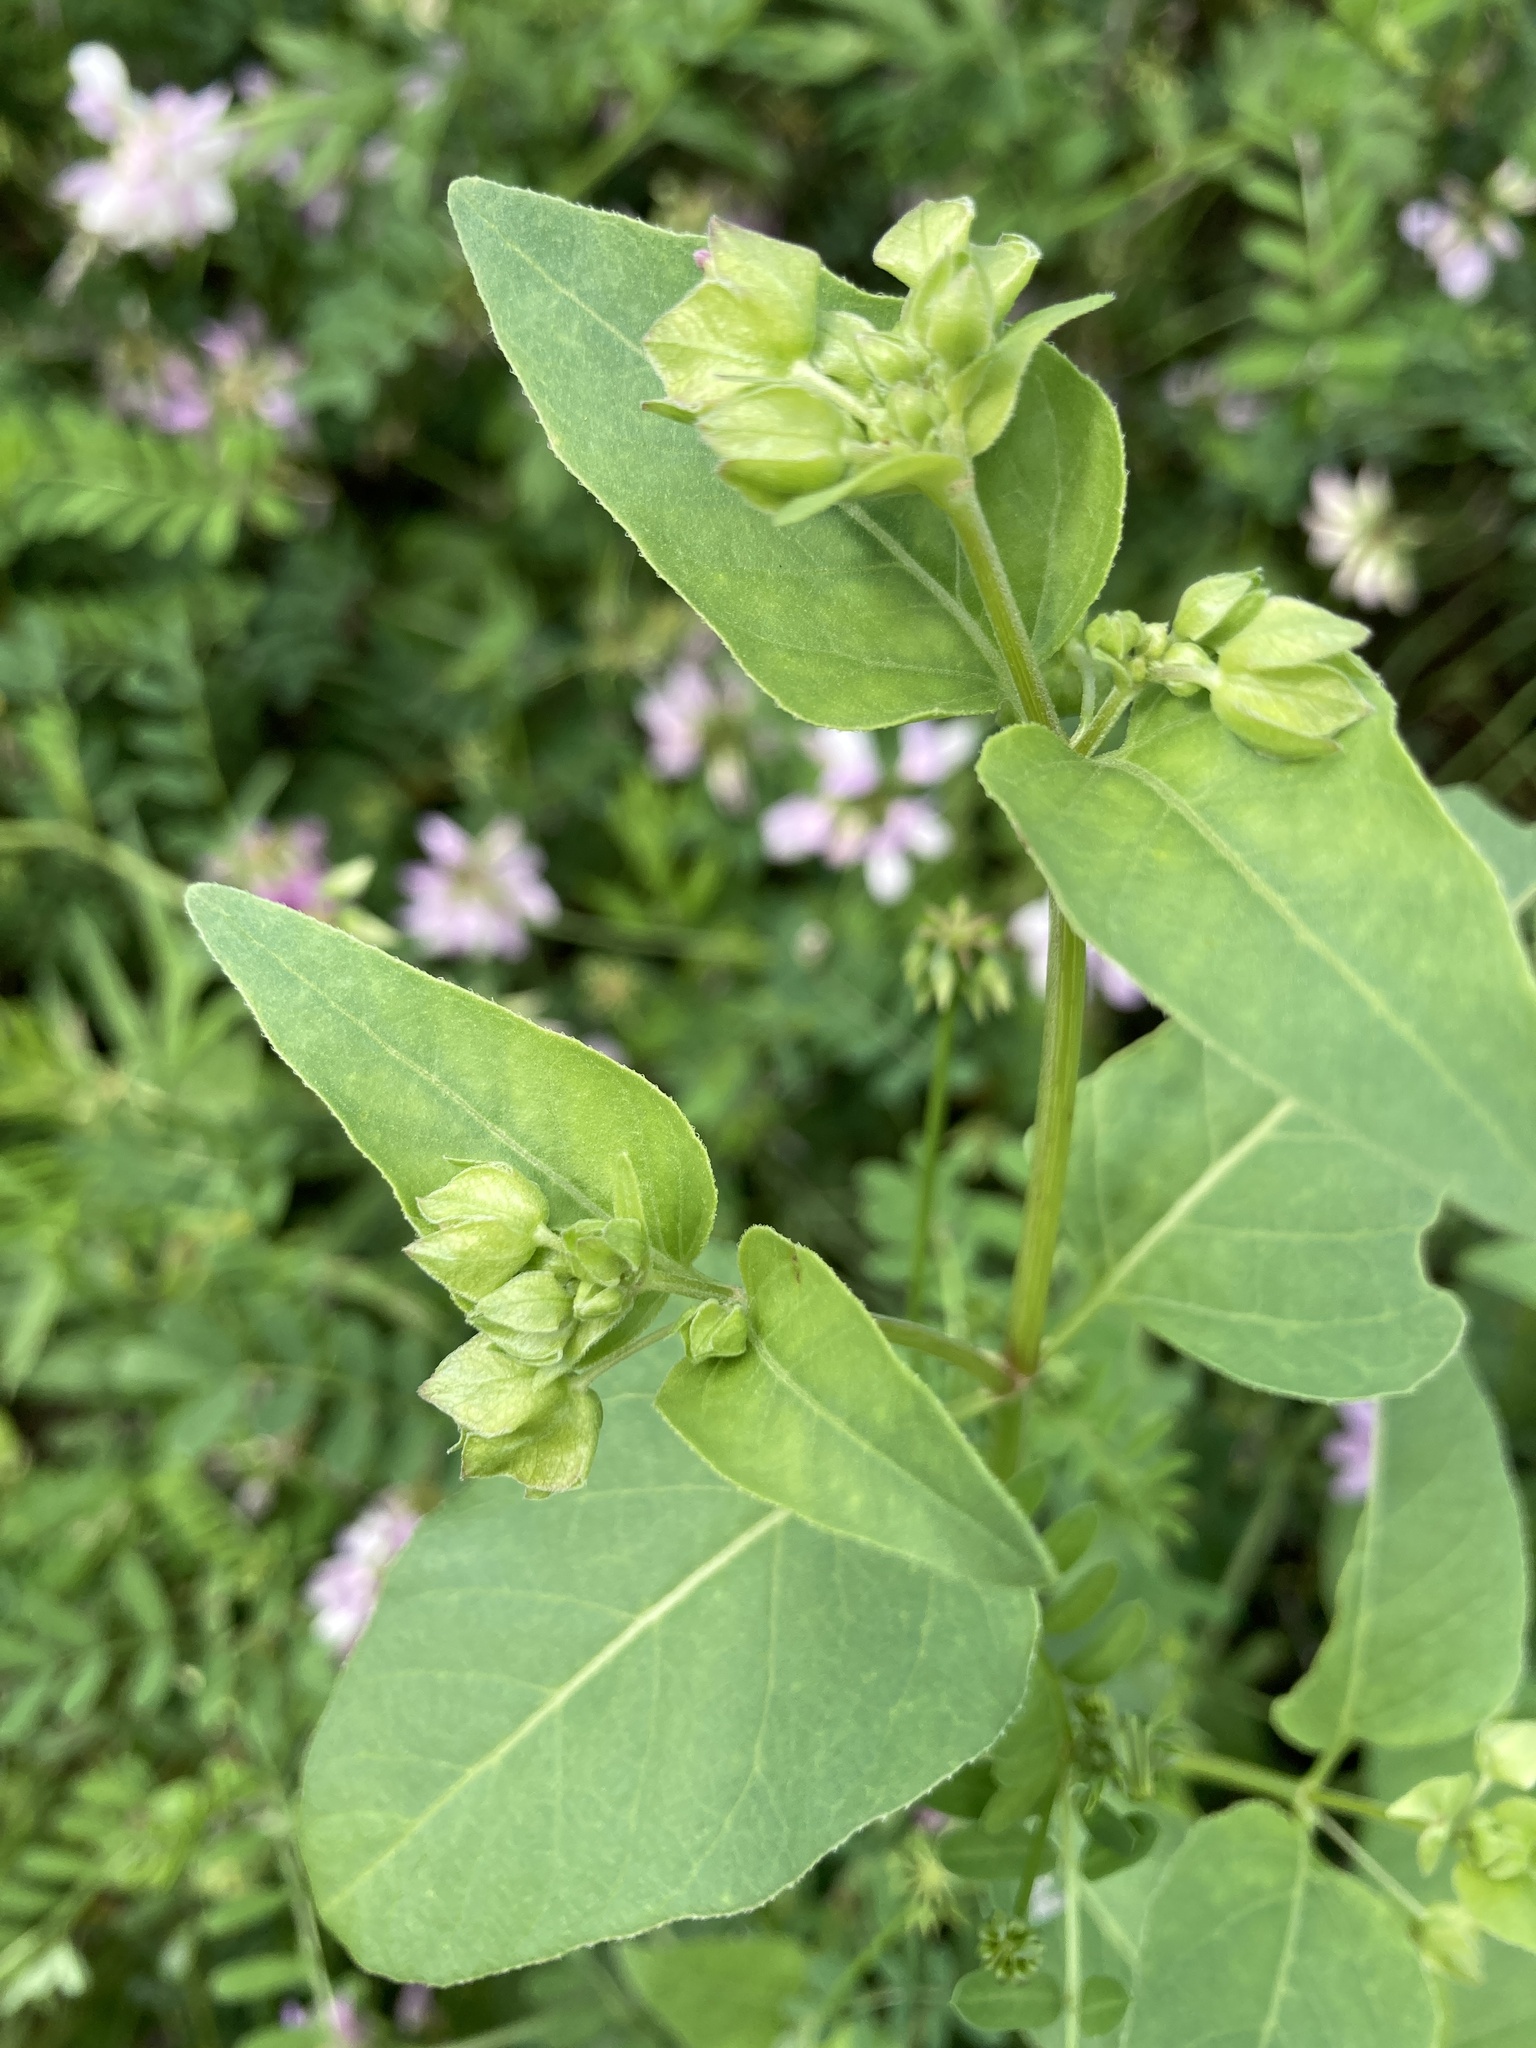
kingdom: Plantae
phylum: Tracheophyta
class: Magnoliopsida
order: Caryophyllales
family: Nyctaginaceae
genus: Mirabilis
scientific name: Mirabilis nyctaginea
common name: Umbrella wort
